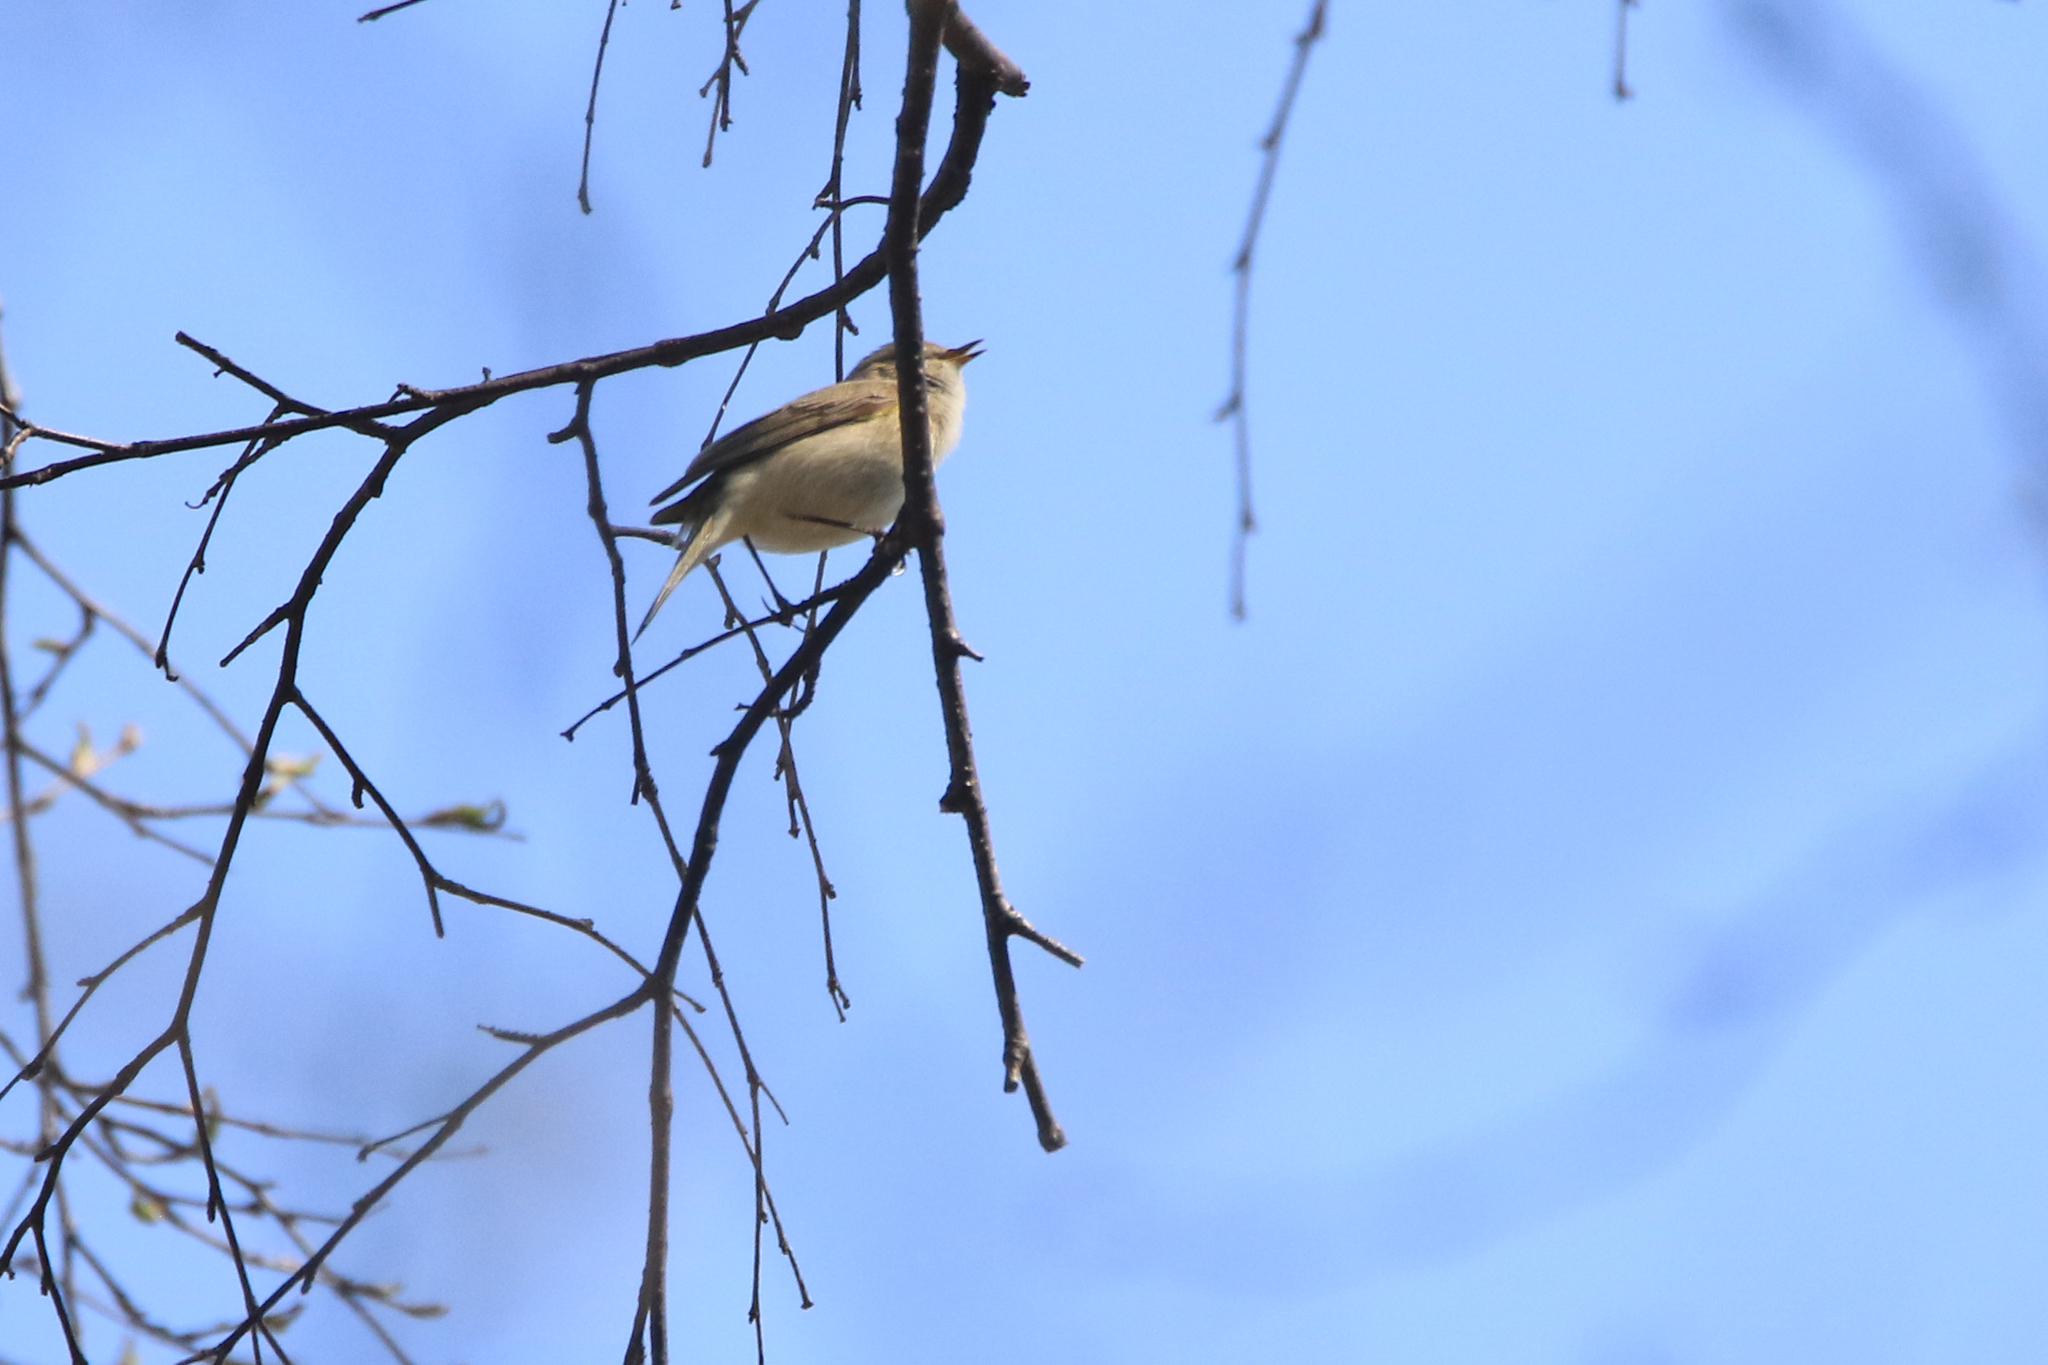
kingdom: Animalia
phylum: Chordata
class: Aves
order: Passeriformes
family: Phylloscopidae
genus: Phylloscopus
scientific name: Phylloscopus collybita
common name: Common chiffchaff
